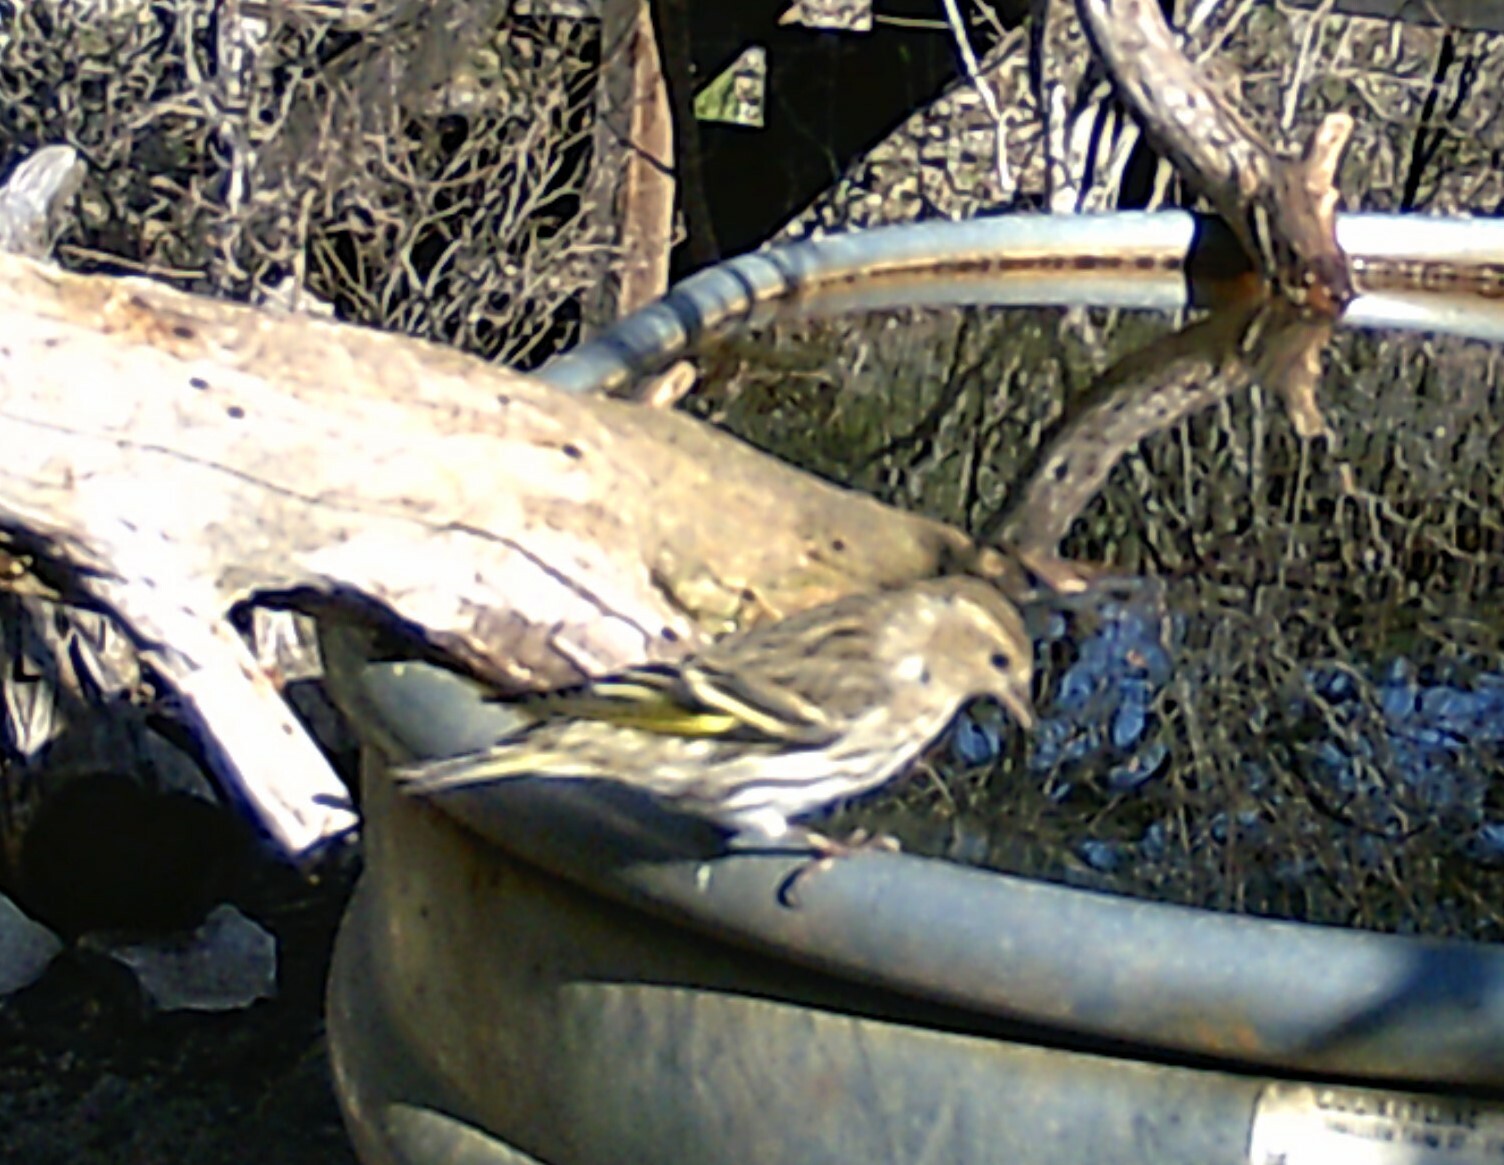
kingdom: Animalia
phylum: Chordata
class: Aves
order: Passeriformes
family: Fringillidae
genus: Spinus
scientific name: Spinus pinus
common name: Pine siskin
